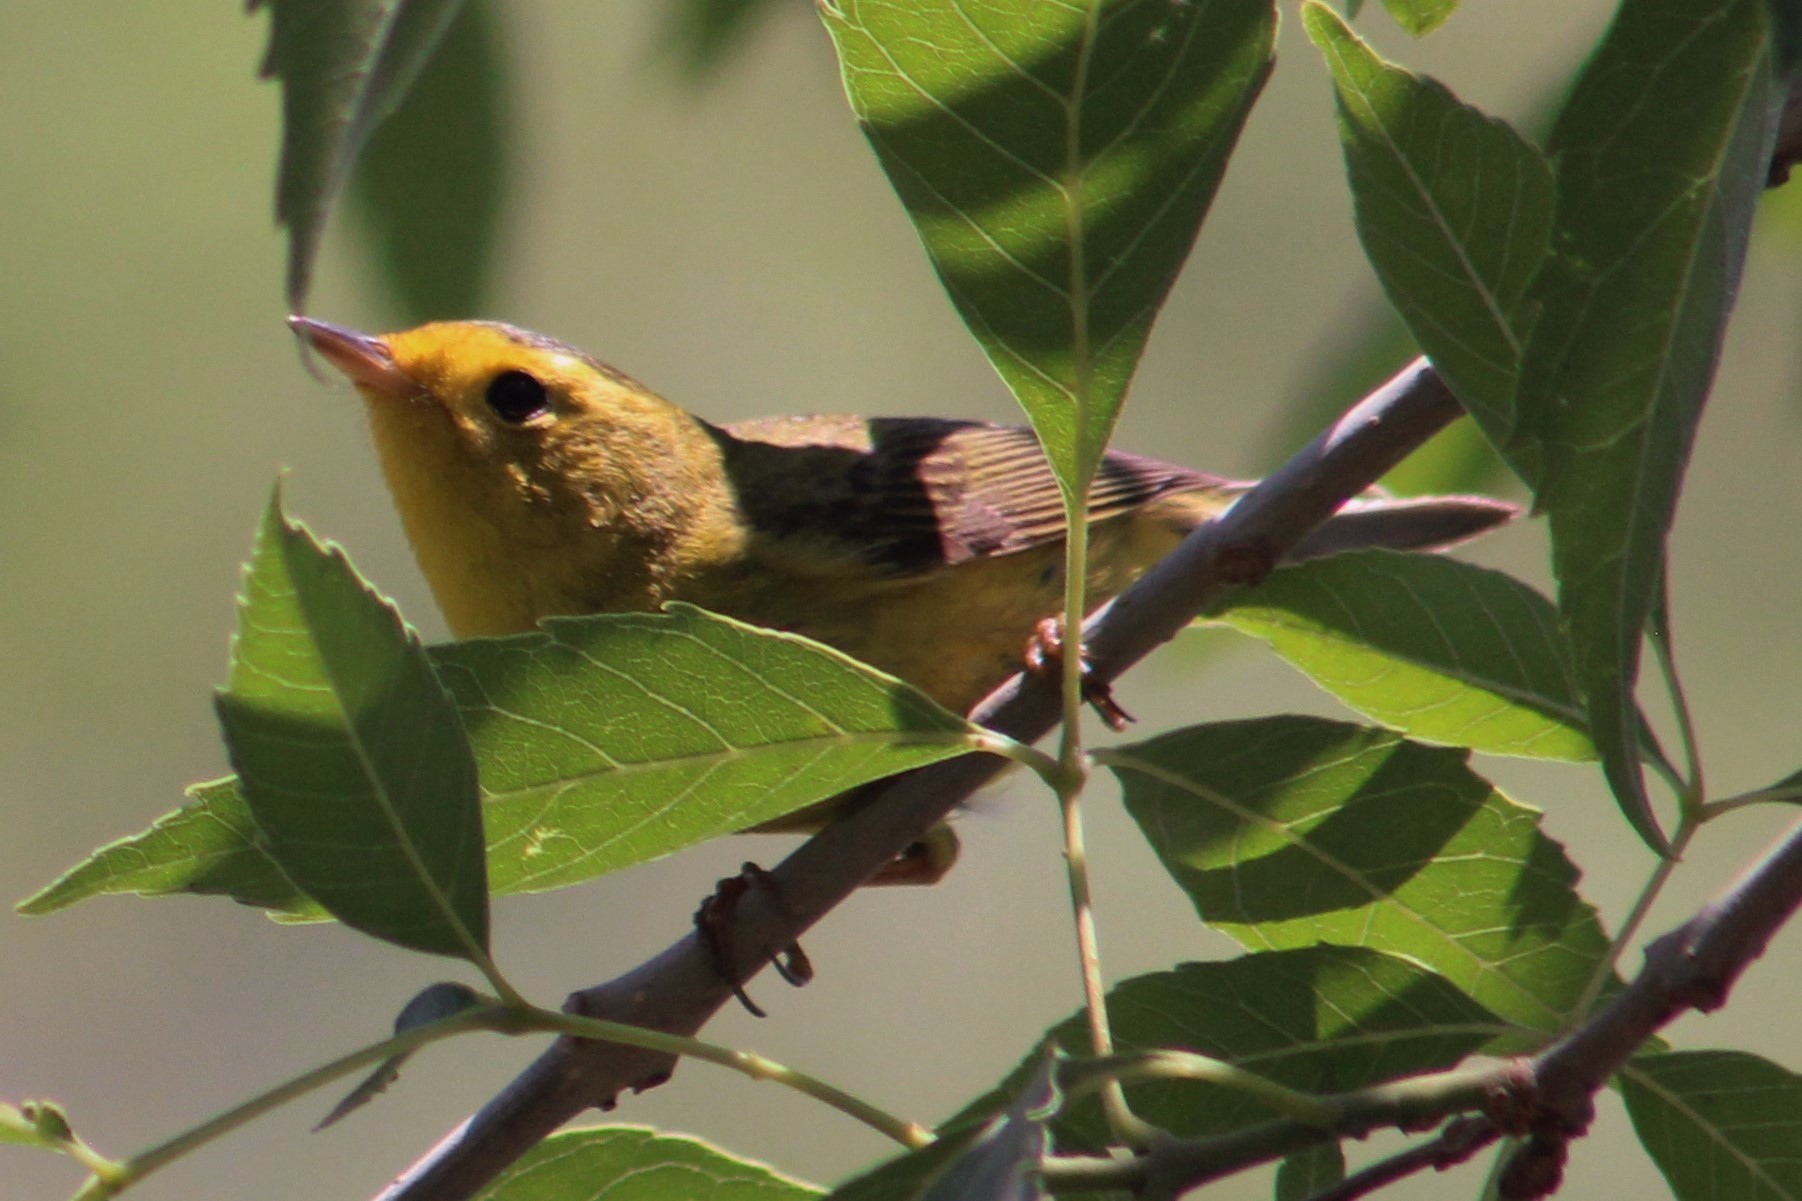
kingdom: Animalia
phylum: Chordata
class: Aves
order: Passeriformes
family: Parulidae
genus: Cardellina
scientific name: Cardellina pusilla
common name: Wilson's warbler
